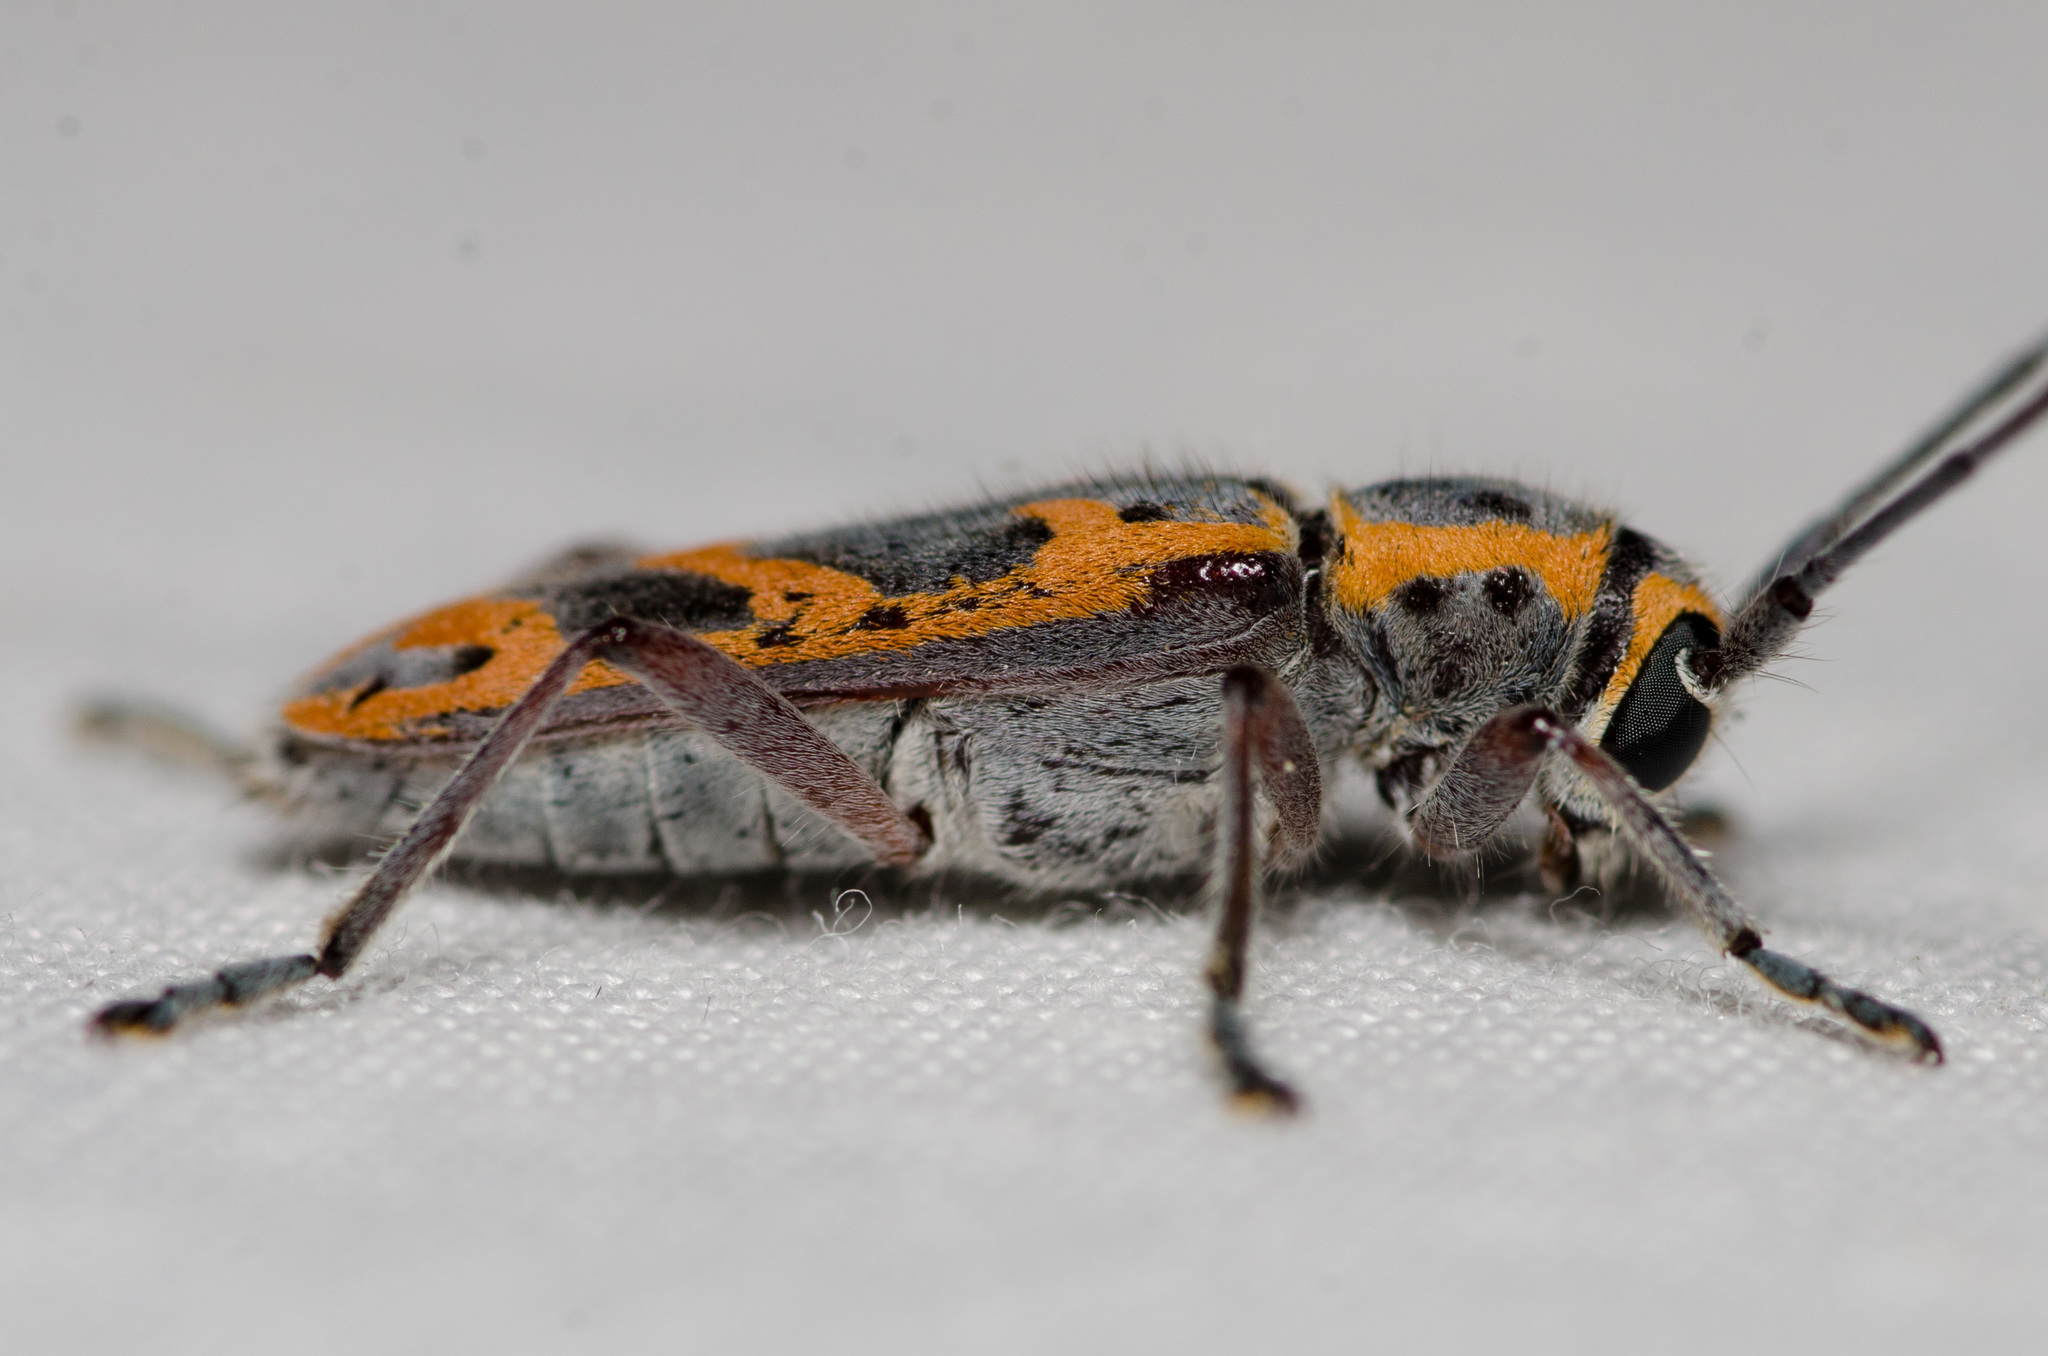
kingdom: Animalia
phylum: Arthropoda
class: Insecta
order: Coleoptera
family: Cerambycidae
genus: Saperda
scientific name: Saperda tridentata
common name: Elm borer
